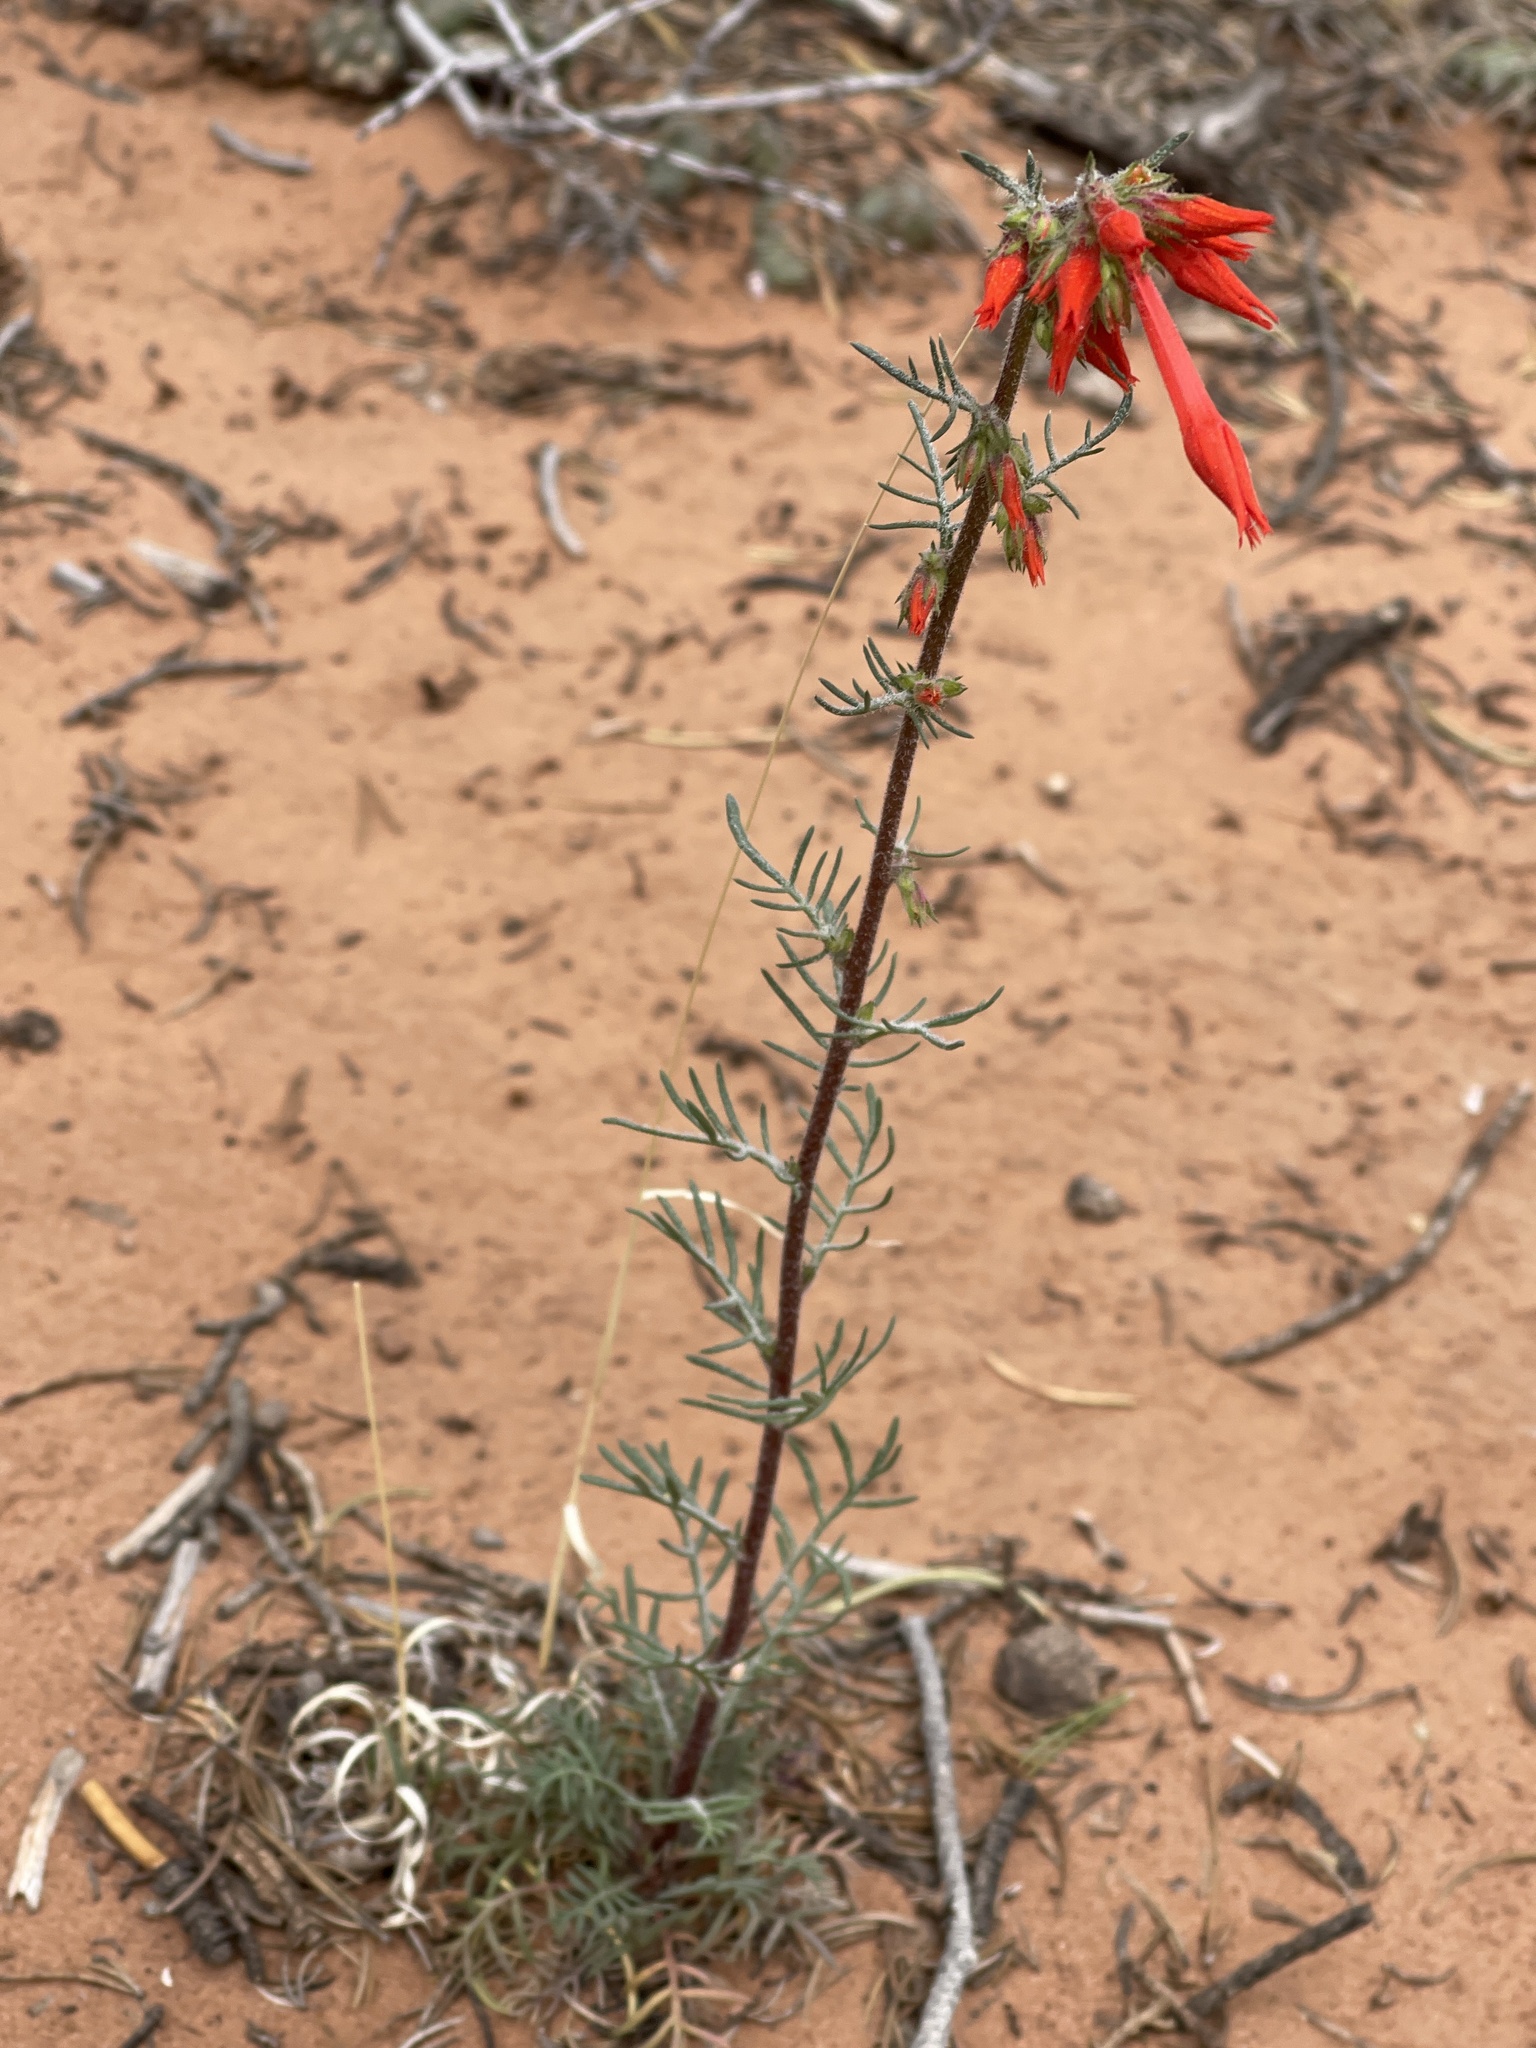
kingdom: Plantae
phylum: Tracheophyta
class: Magnoliopsida
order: Ericales
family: Polemoniaceae
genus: Ipomopsis
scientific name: Ipomopsis aggregata
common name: Scarlet gilia
